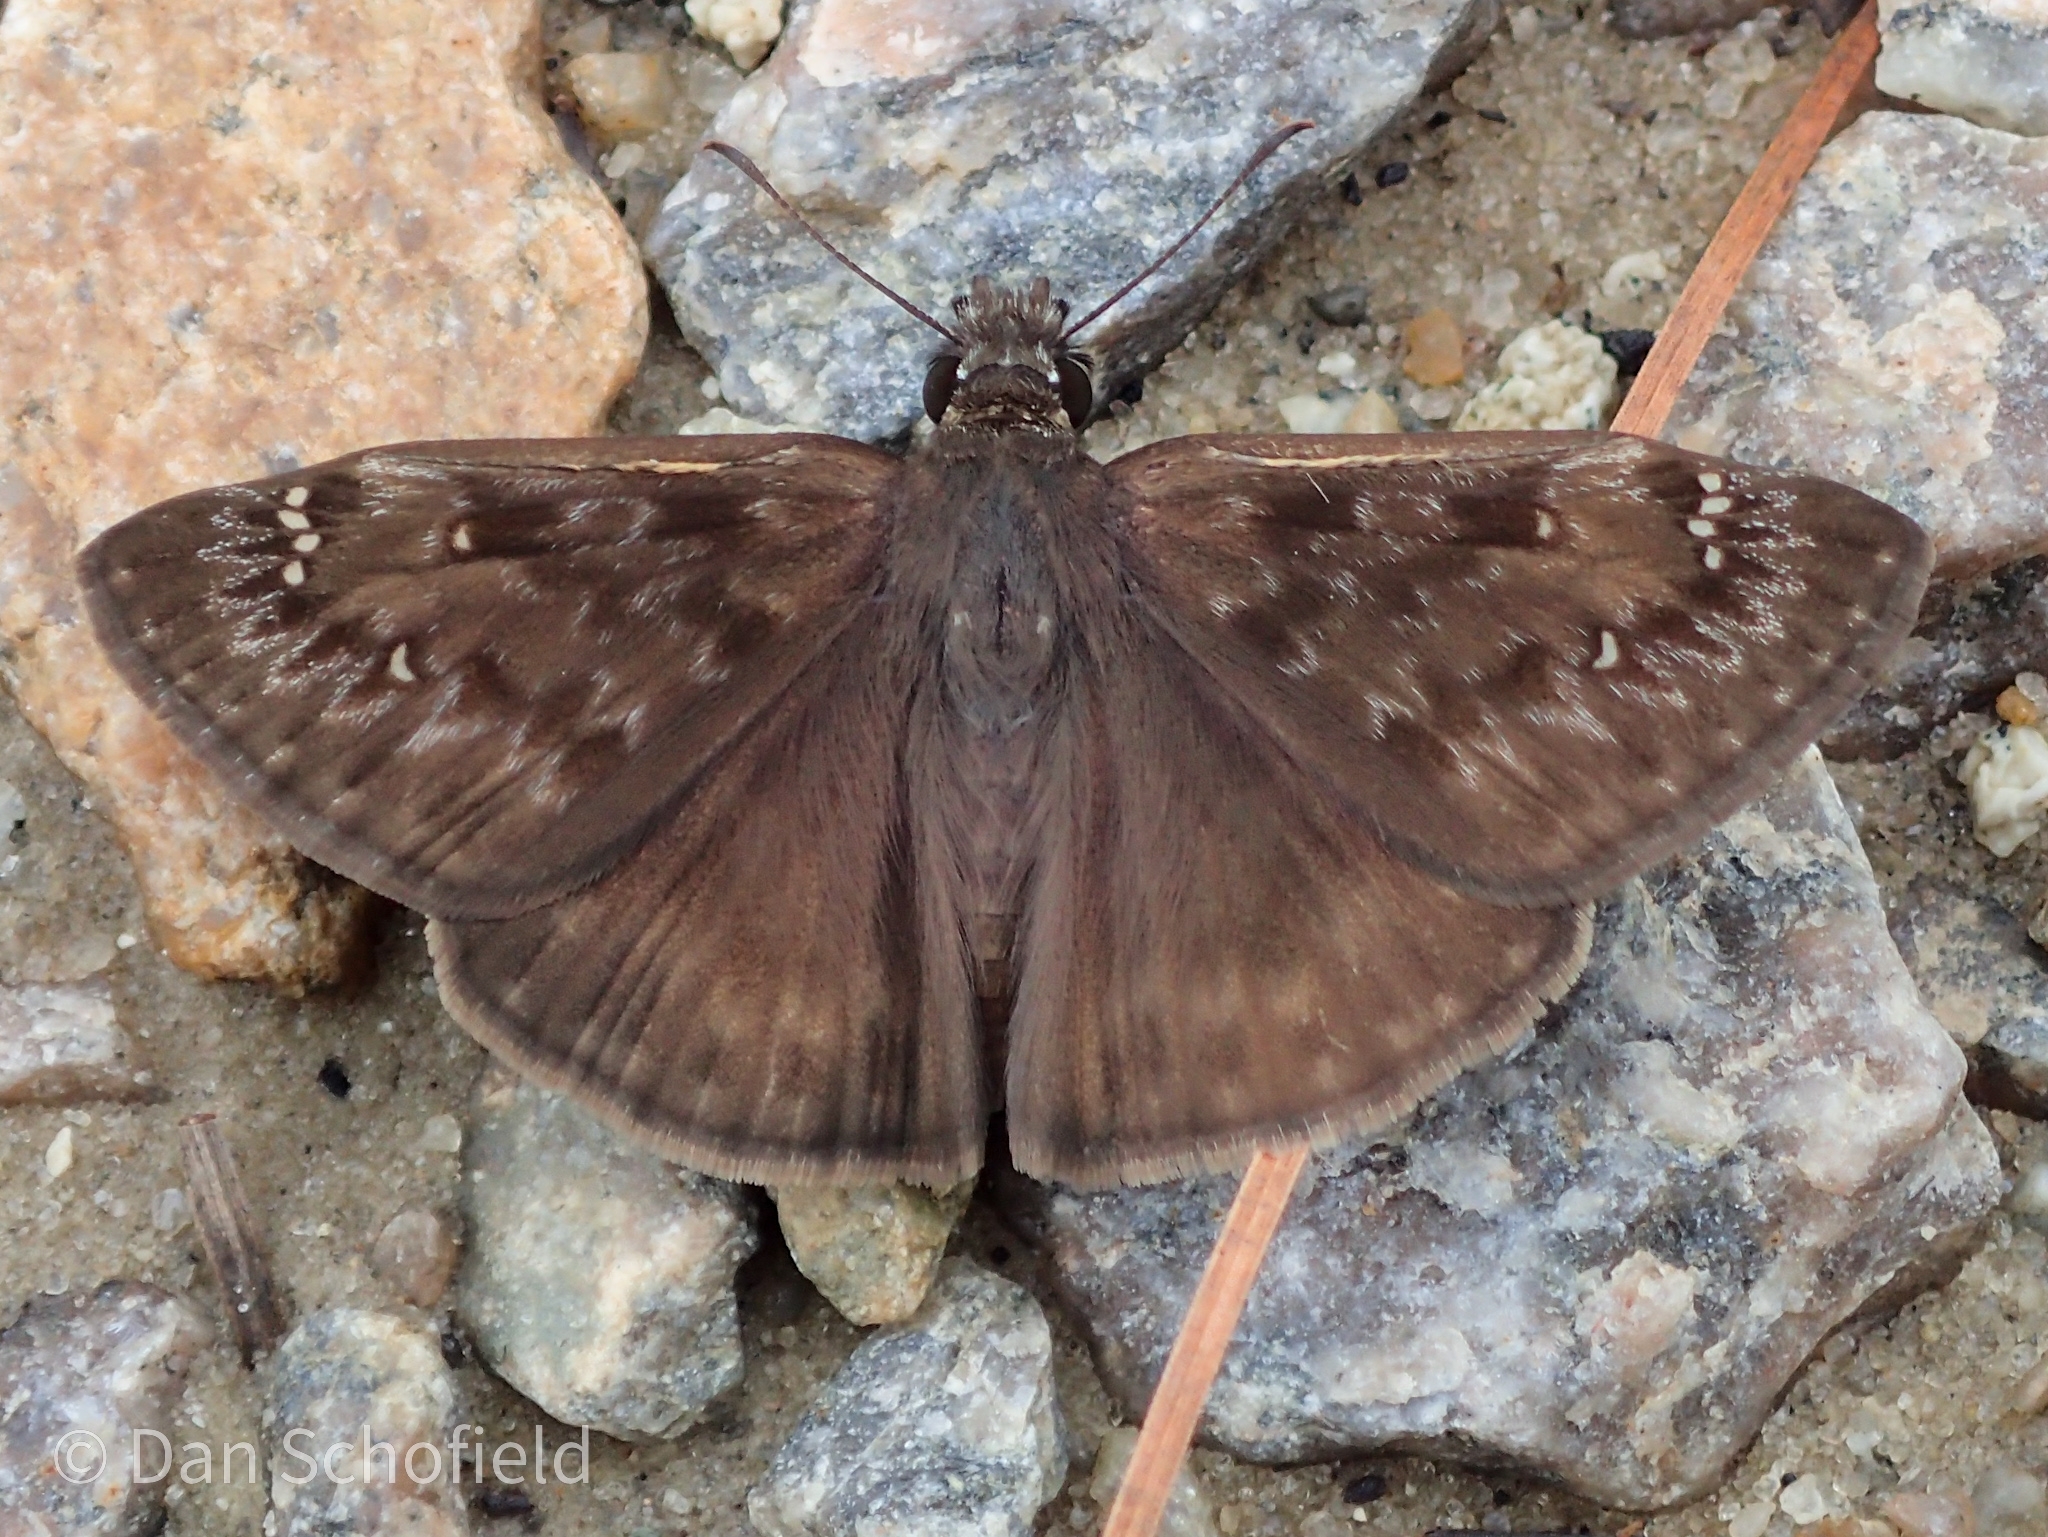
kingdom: Animalia
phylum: Arthropoda
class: Insecta
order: Lepidoptera
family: Hesperiidae
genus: Erynnis
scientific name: Erynnis horatius
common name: Horace's duskywing
